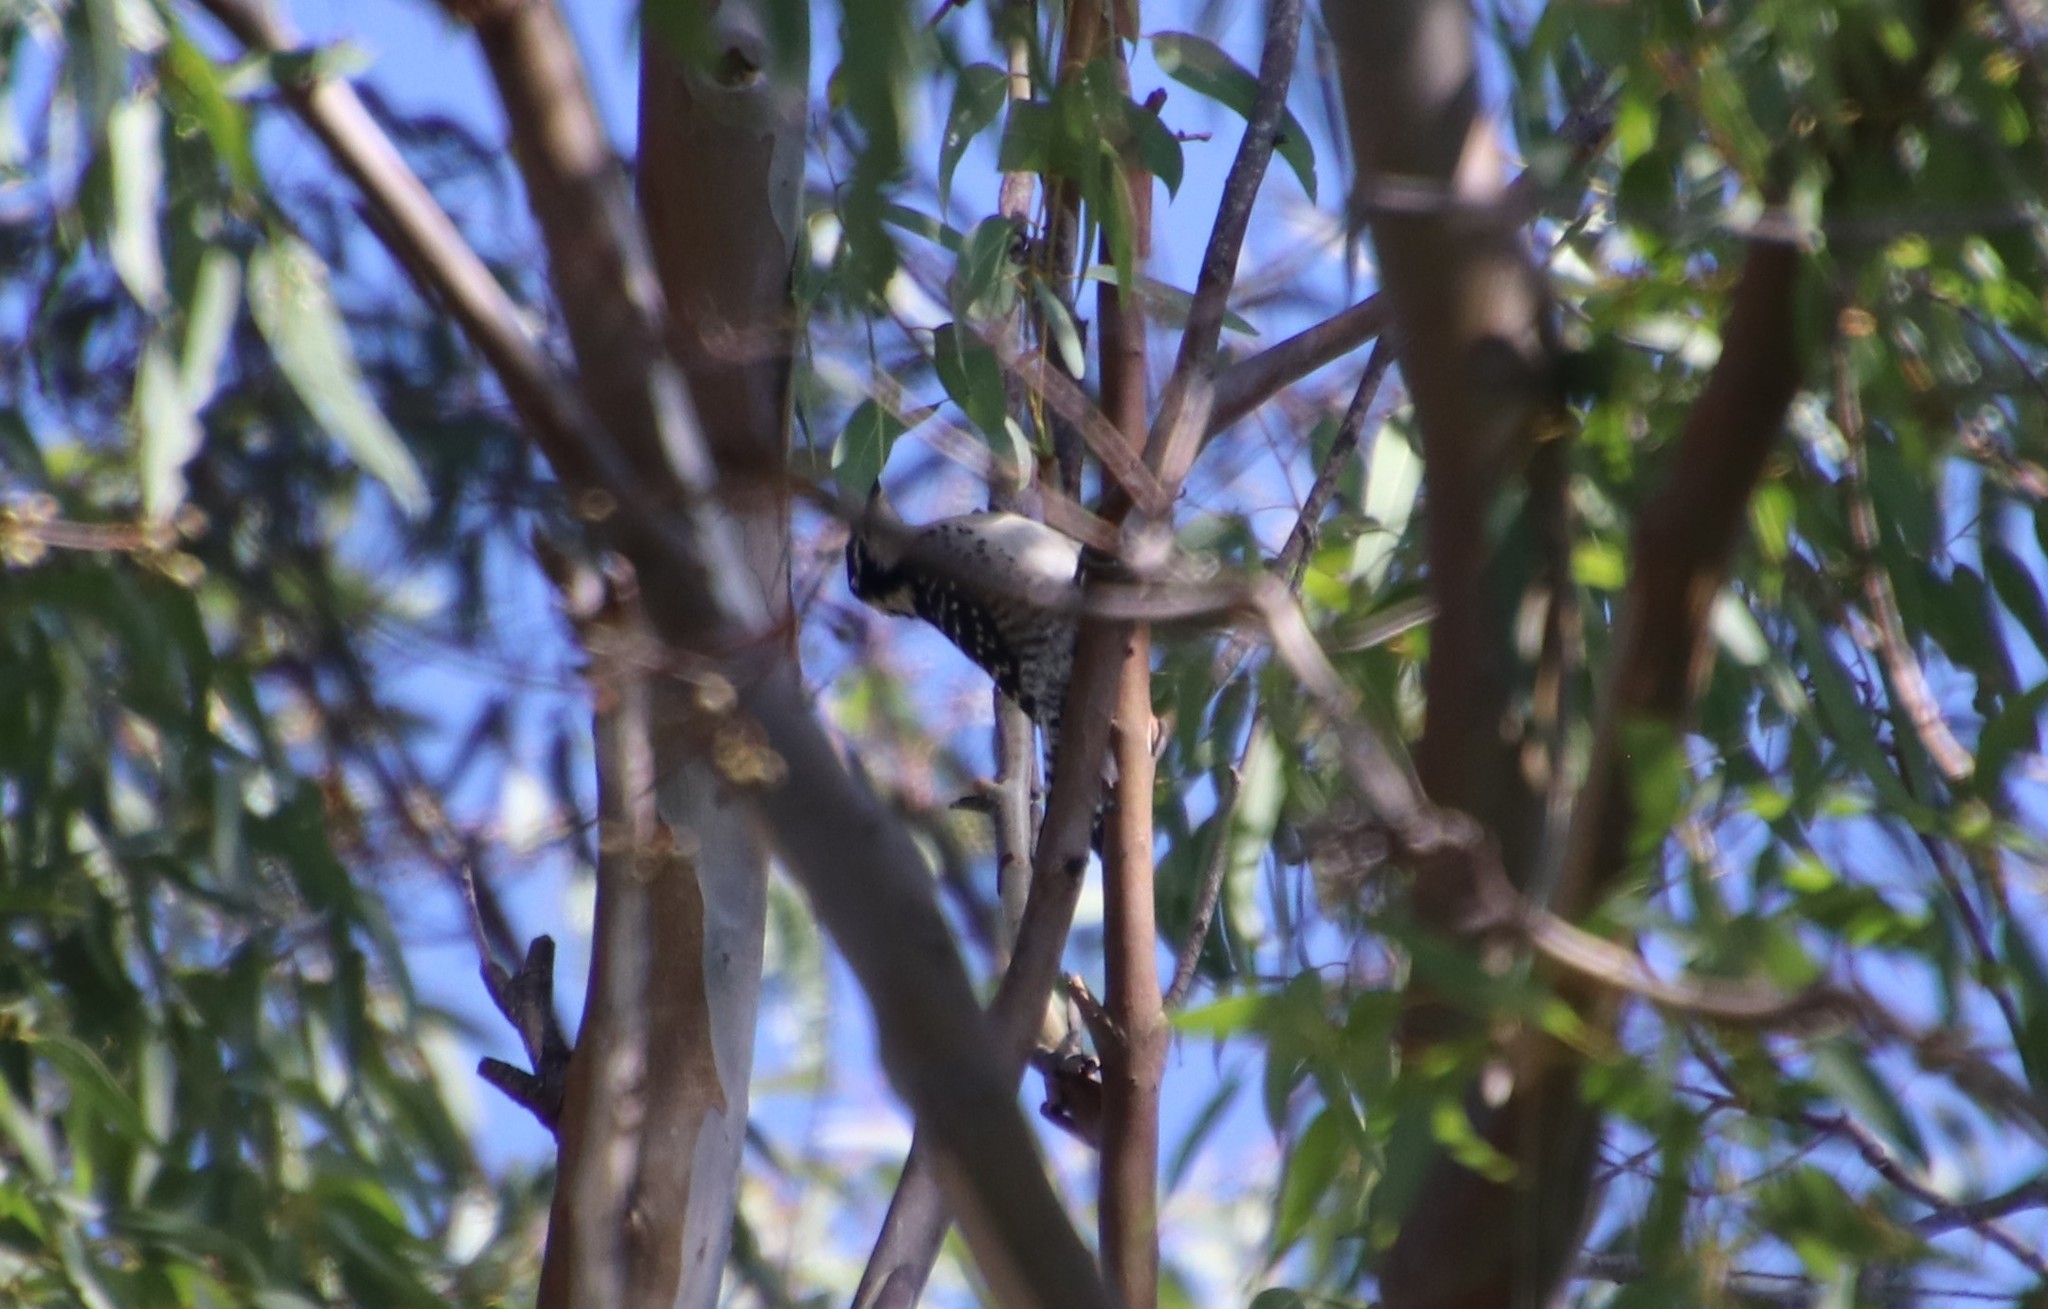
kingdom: Animalia
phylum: Chordata
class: Aves
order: Piciformes
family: Picidae
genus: Dryobates
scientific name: Dryobates nuttallii
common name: Nuttall's woodpecker
